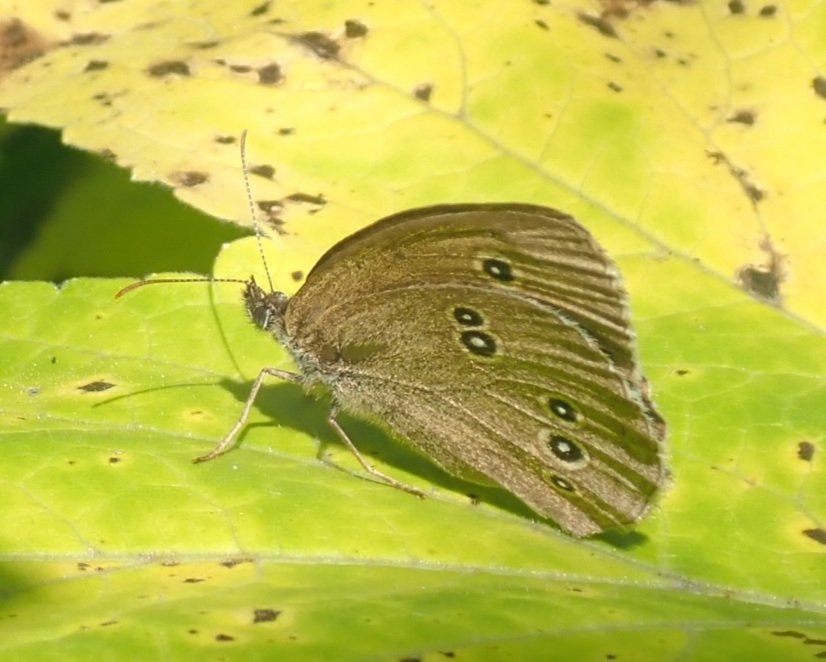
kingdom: Animalia
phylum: Arthropoda
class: Insecta
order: Lepidoptera
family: Nymphalidae
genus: Aphantopus
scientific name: Aphantopus hyperantus
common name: Ringlet
